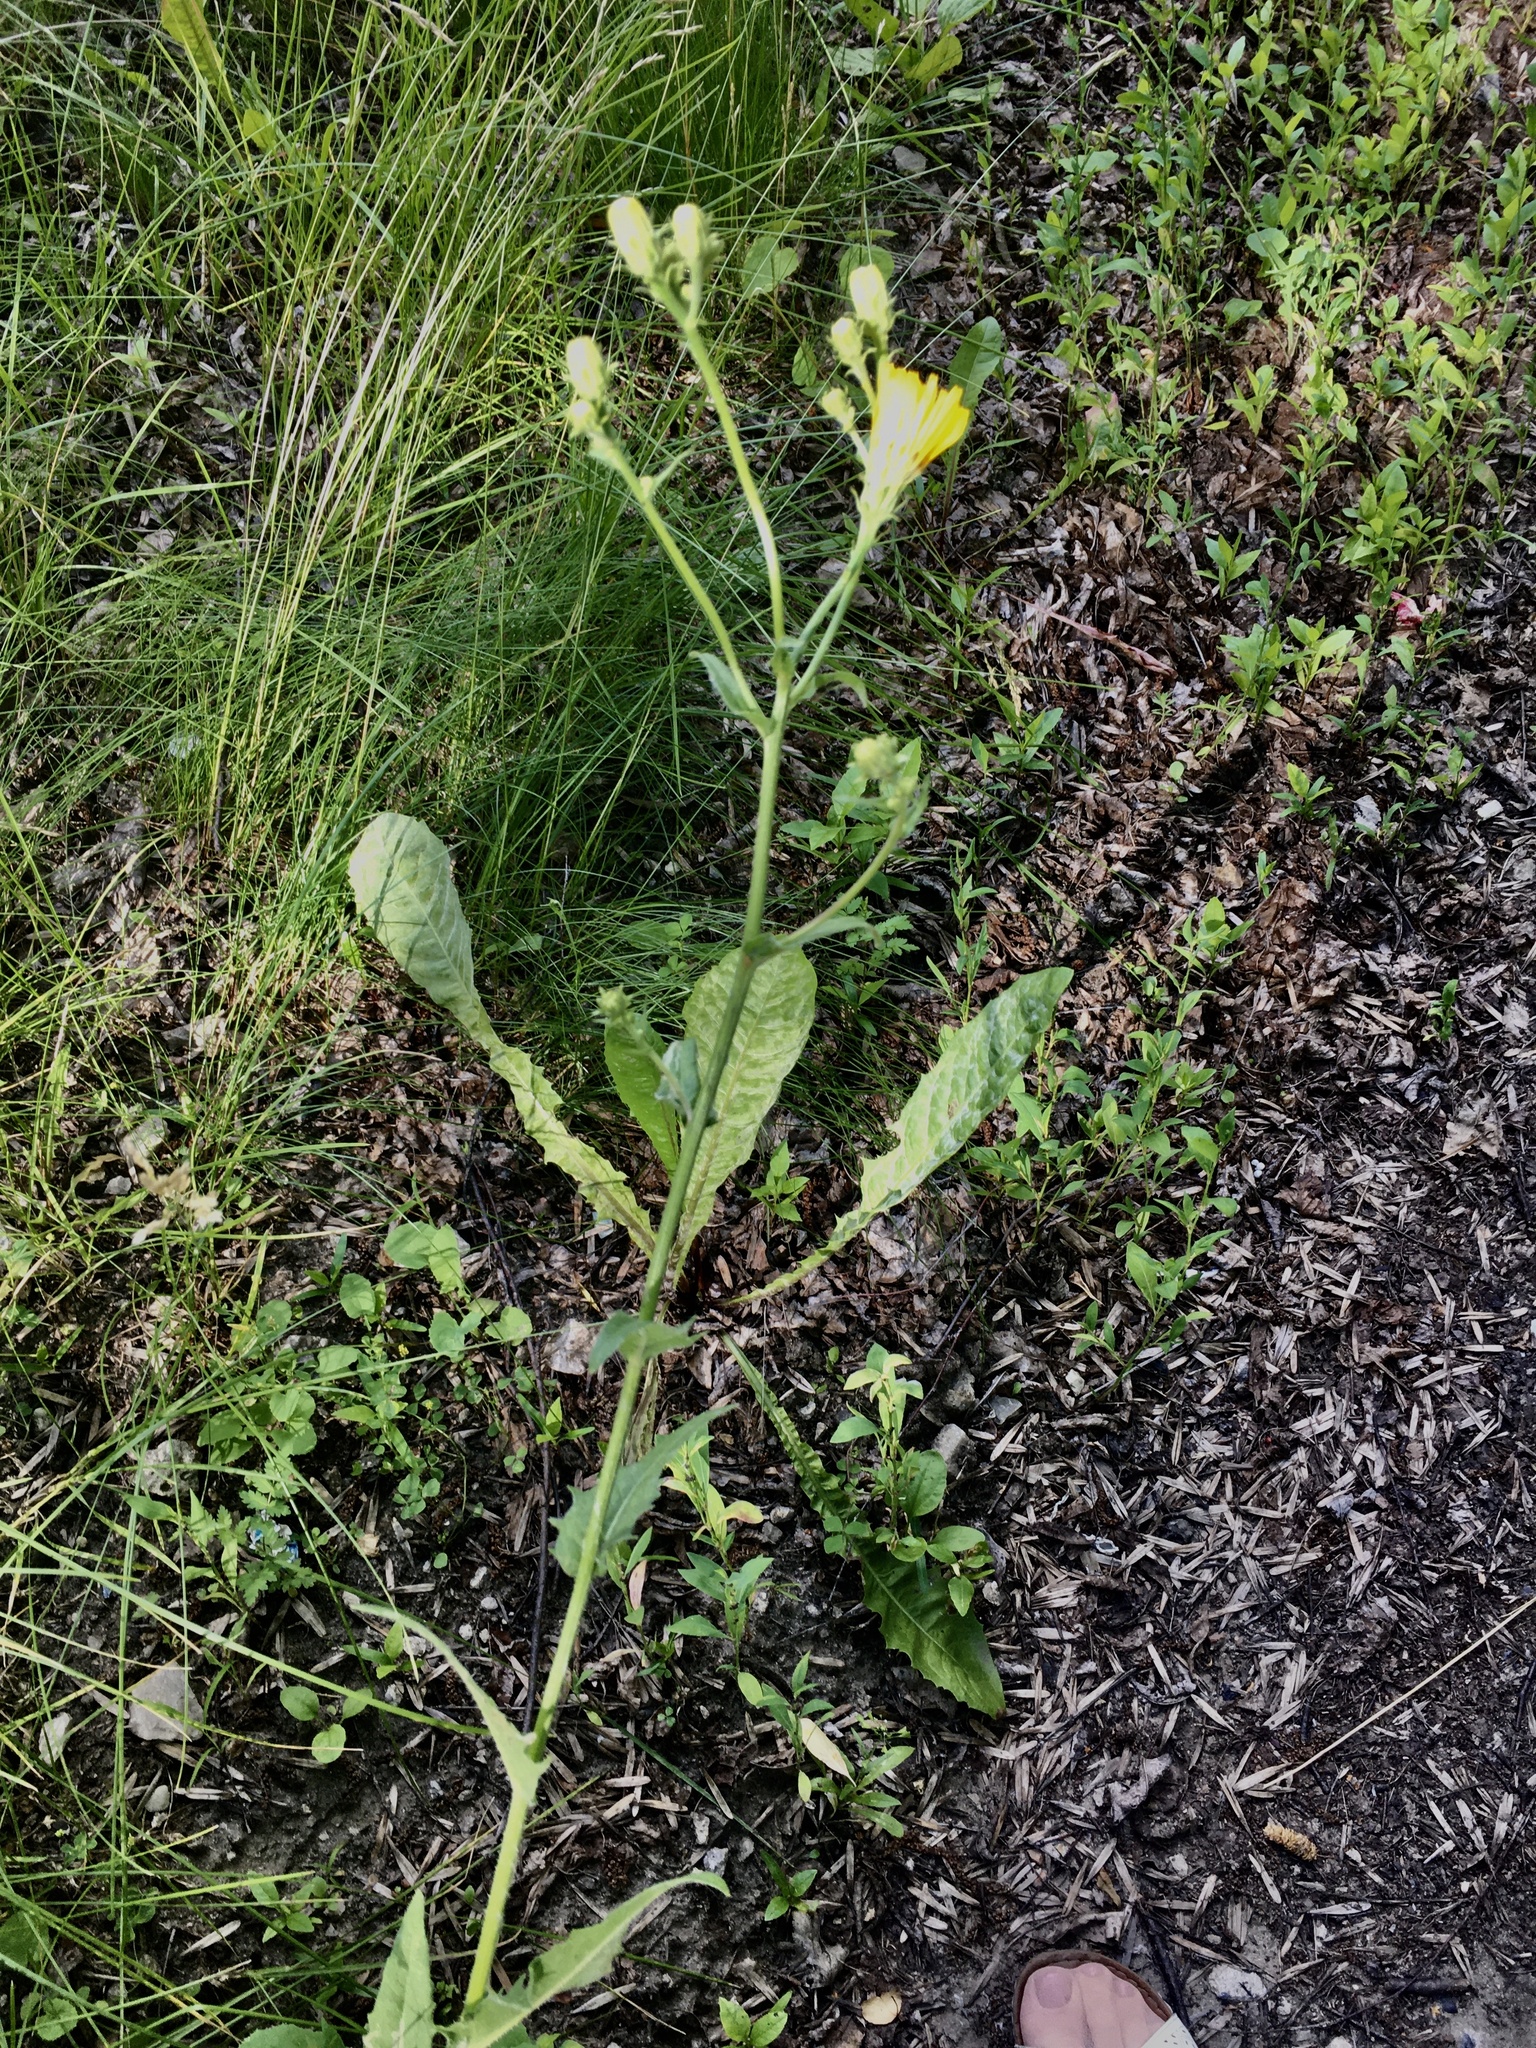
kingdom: Plantae
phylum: Tracheophyta
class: Magnoliopsida
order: Asterales
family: Asteraceae
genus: Picris
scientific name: Picris hieracioides
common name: Hawkweed oxtongue
